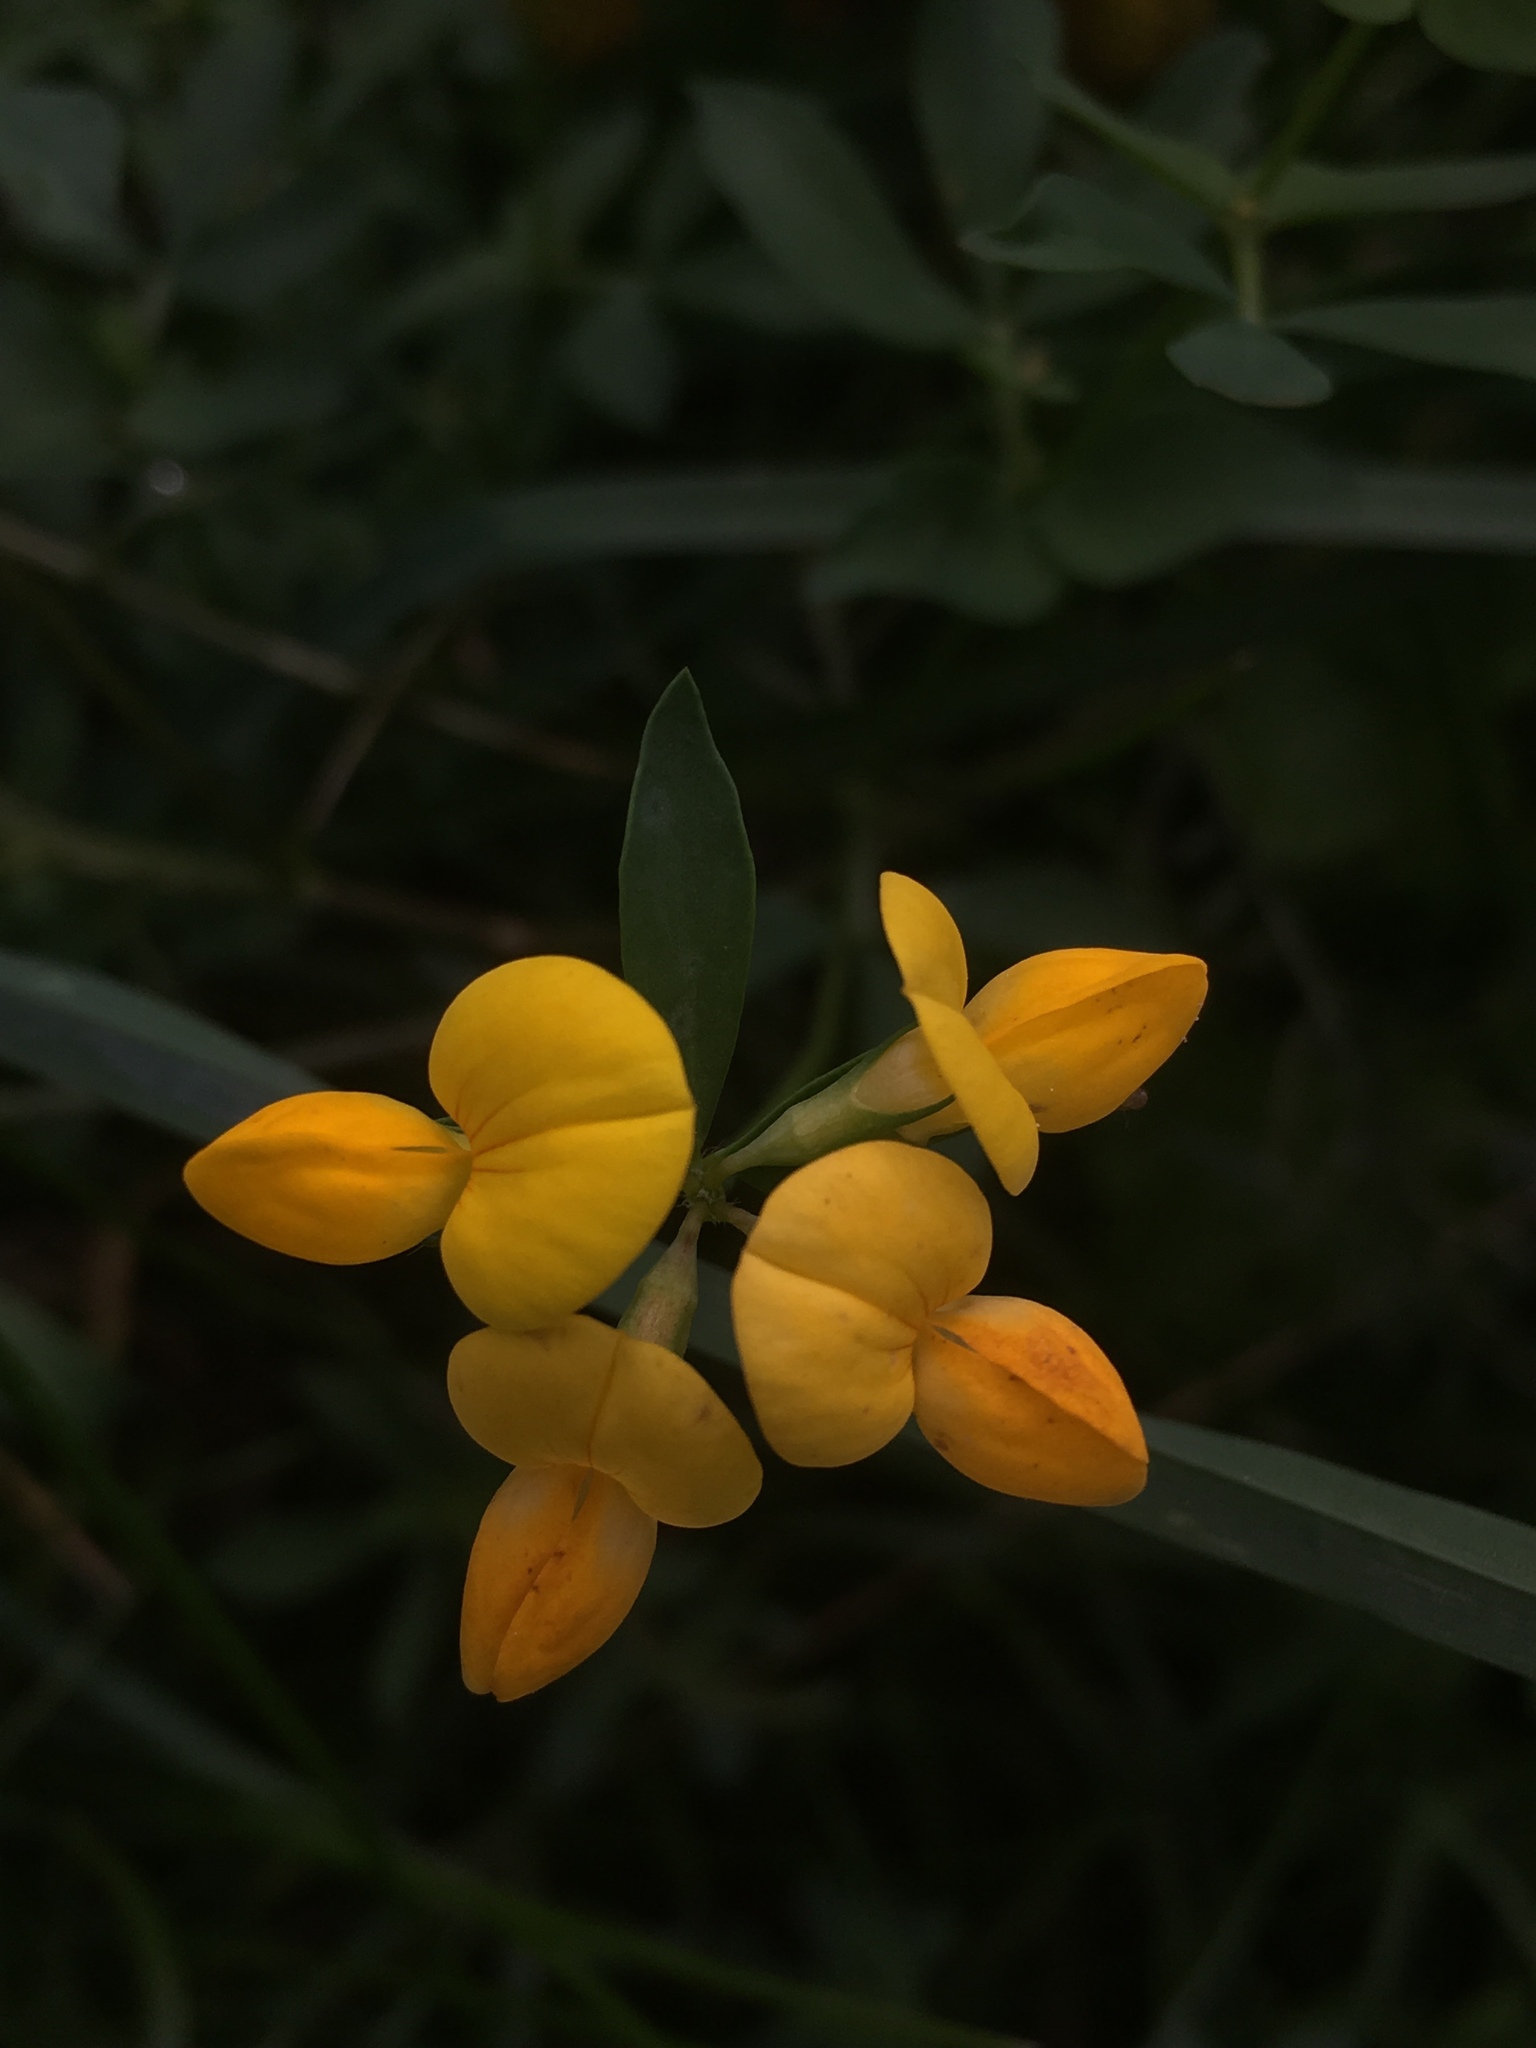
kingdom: Plantae
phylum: Tracheophyta
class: Magnoliopsida
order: Fabales
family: Fabaceae
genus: Lotus
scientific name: Lotus corniculatus
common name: Common bird's-foot-trefoil
